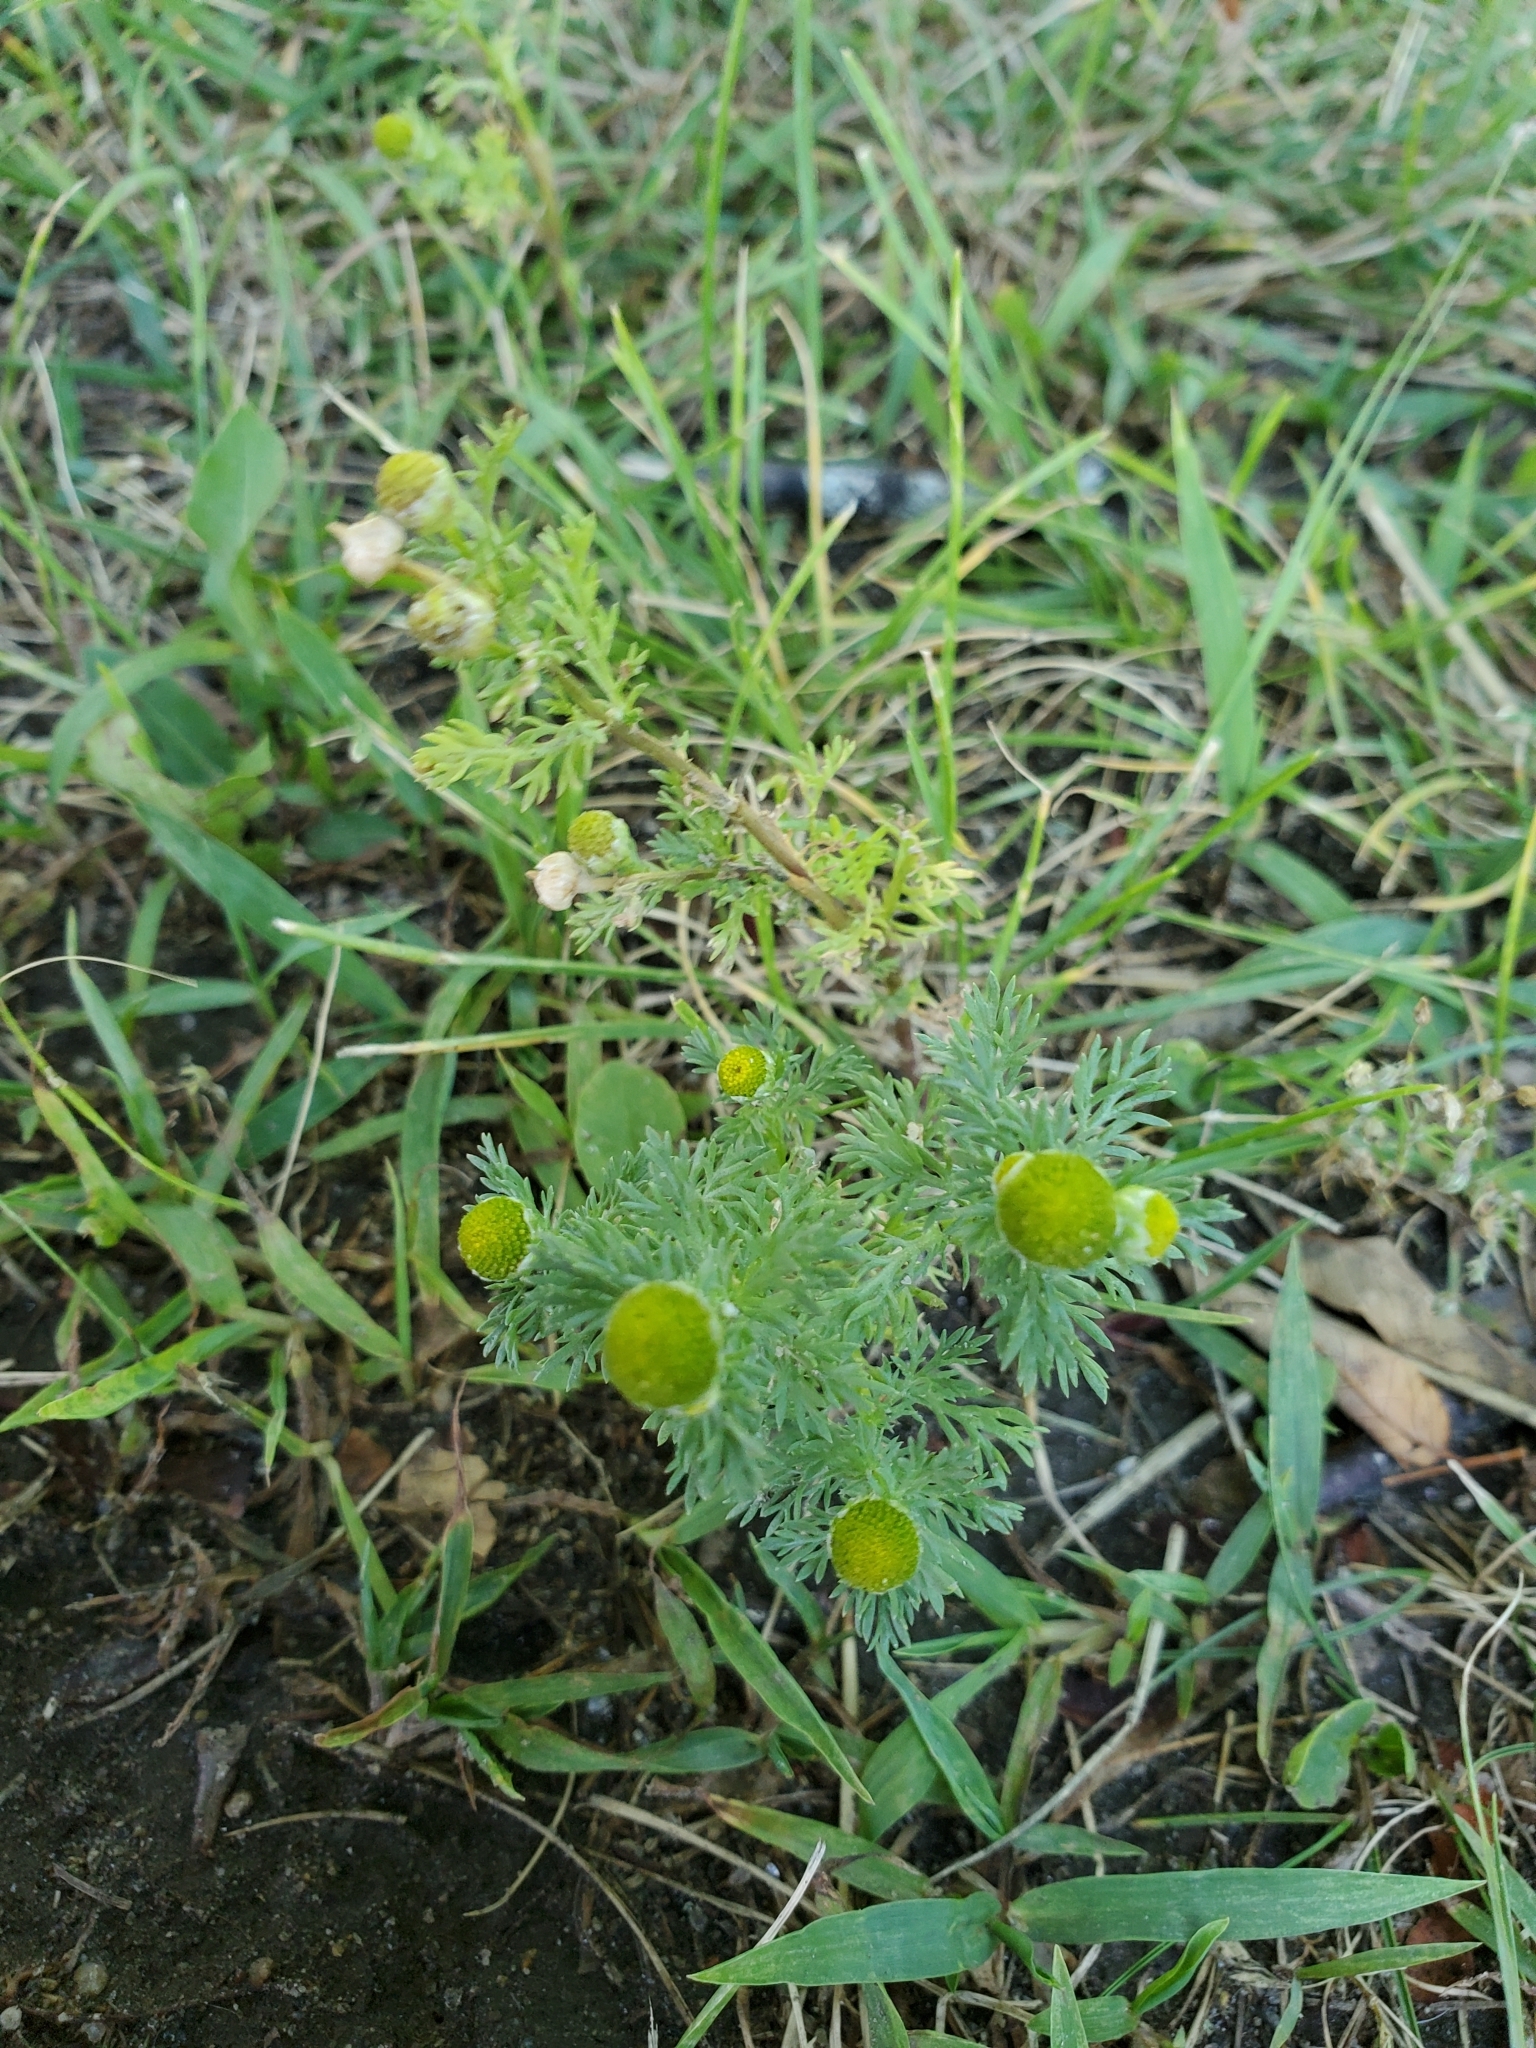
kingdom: Plantae
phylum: Tracheophyta
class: Magnoliopsida
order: Asterales
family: Asteraceae
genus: Matricaria
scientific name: Matricaria discoidea
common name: Disc mayweed
